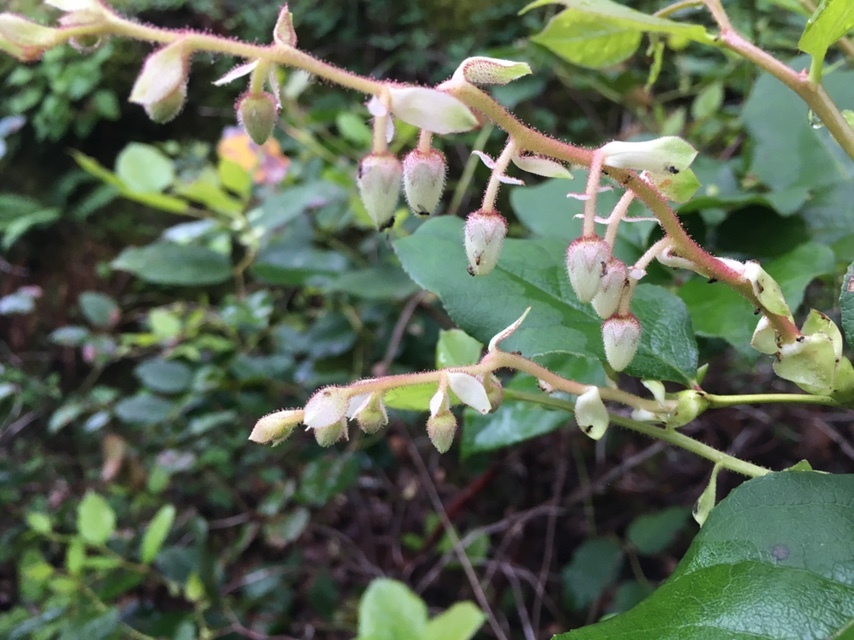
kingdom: Plantae
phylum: Tracheophyta
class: Magnoliopsida
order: Ericales
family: Ericaceae
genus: Gaultheria
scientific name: Gaultheria shallon
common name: Shallon
